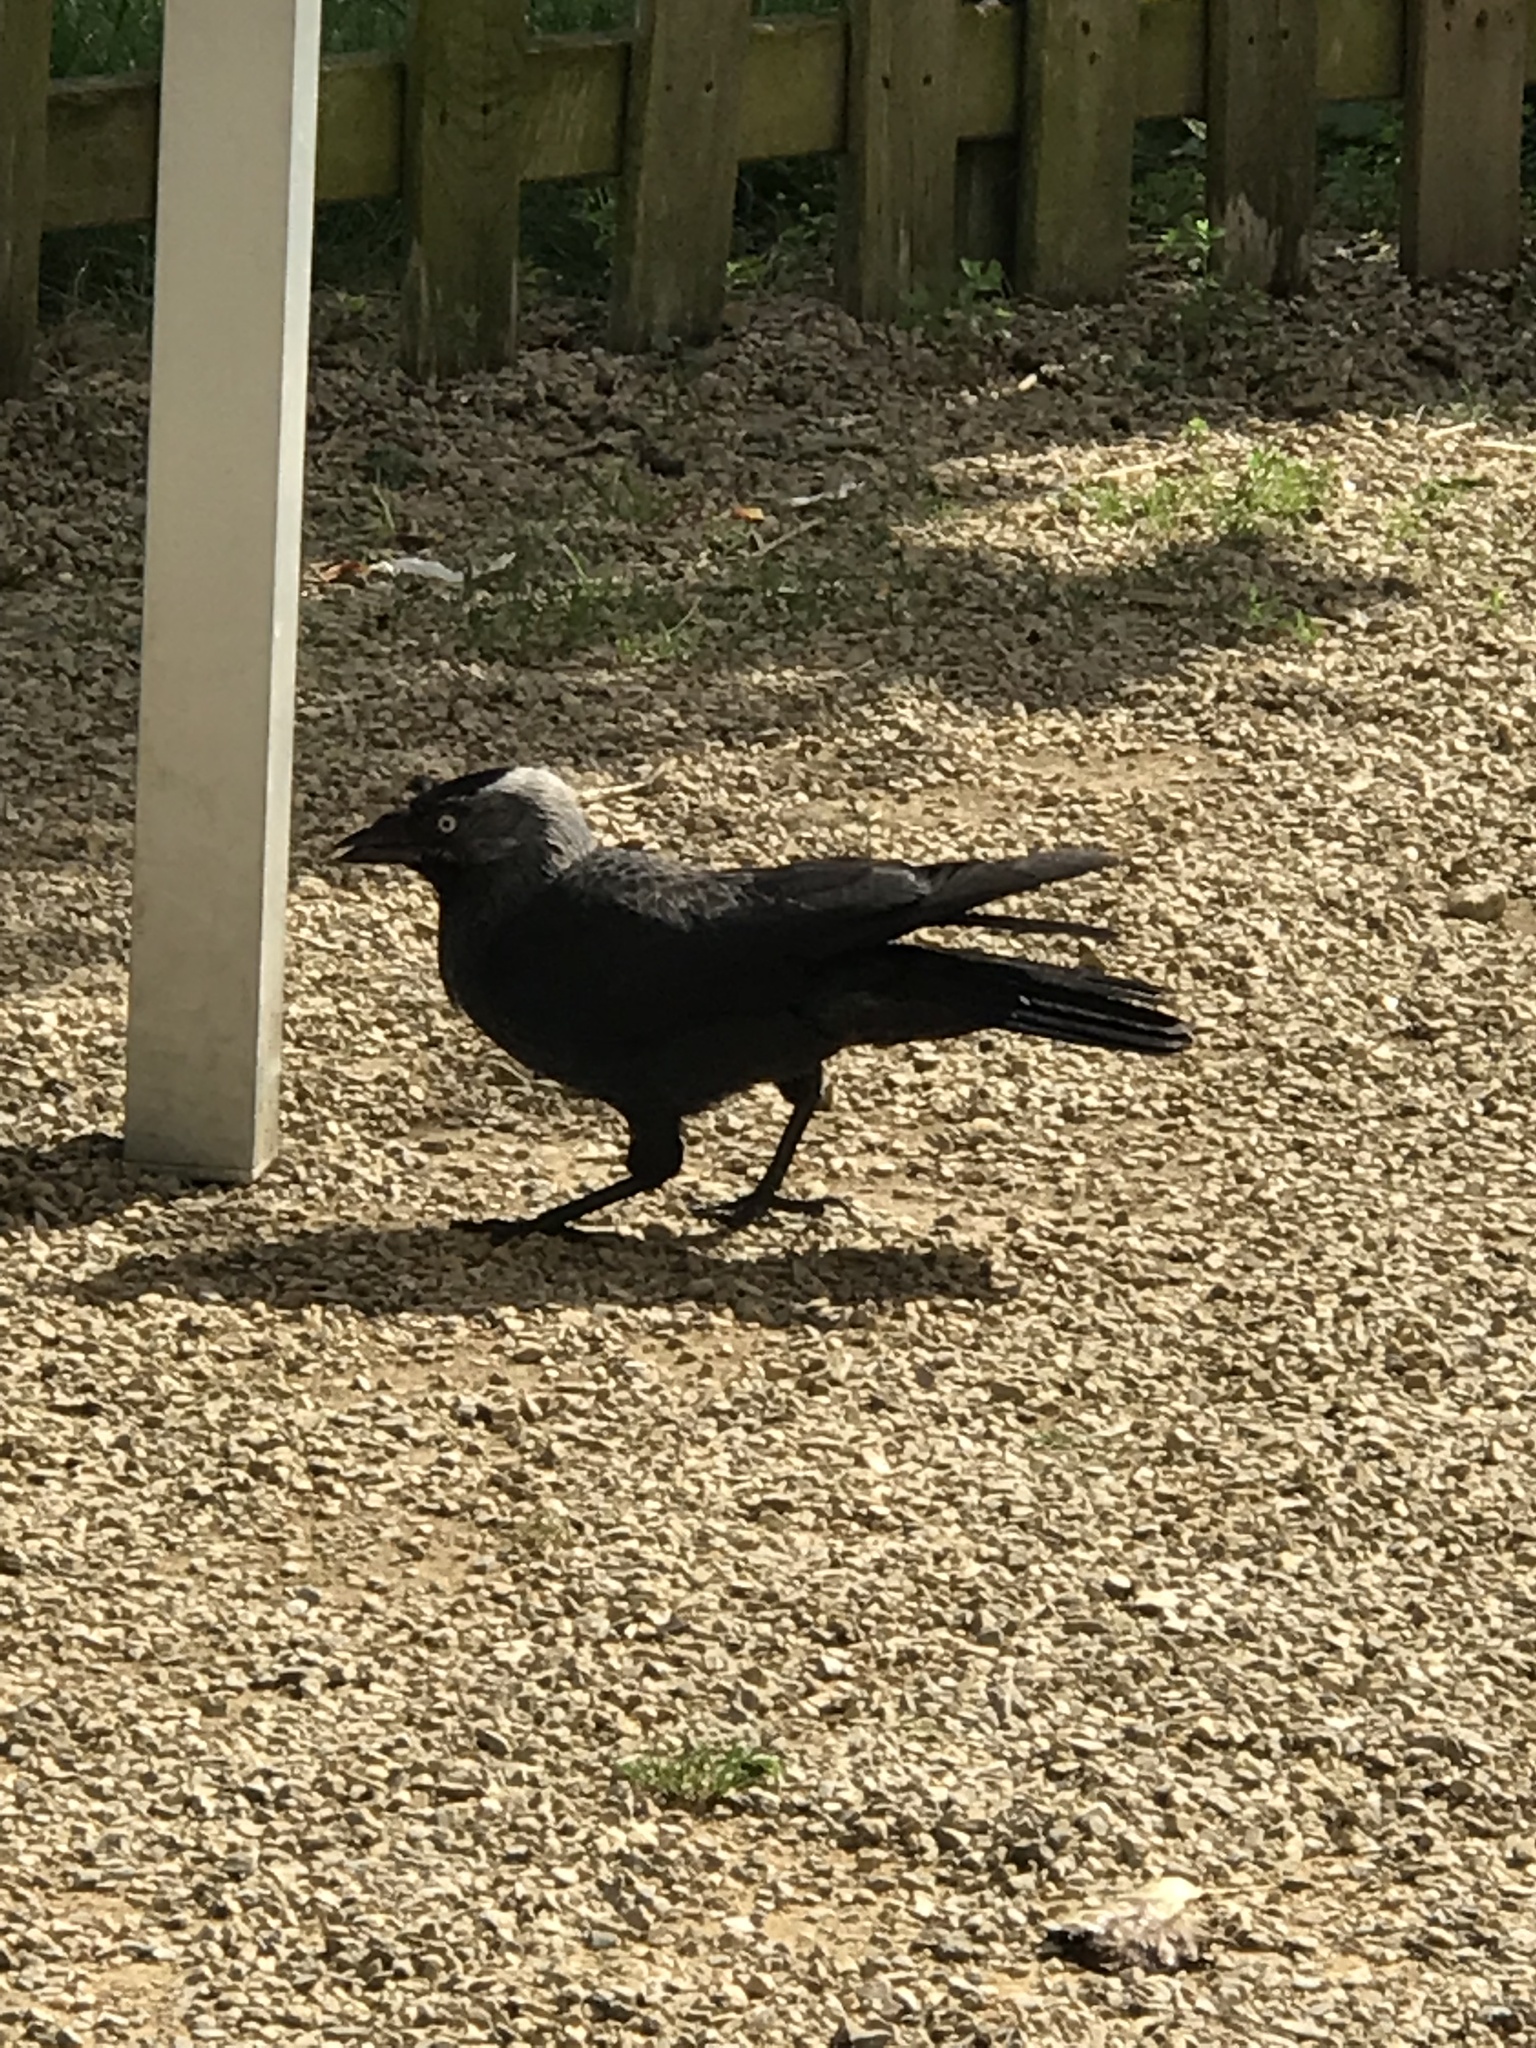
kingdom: Animalia
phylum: Chordata
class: Aves
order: Passeriformes
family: Corvidae
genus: Coloeus
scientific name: Coloeus monedula
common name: Western jackdaw
